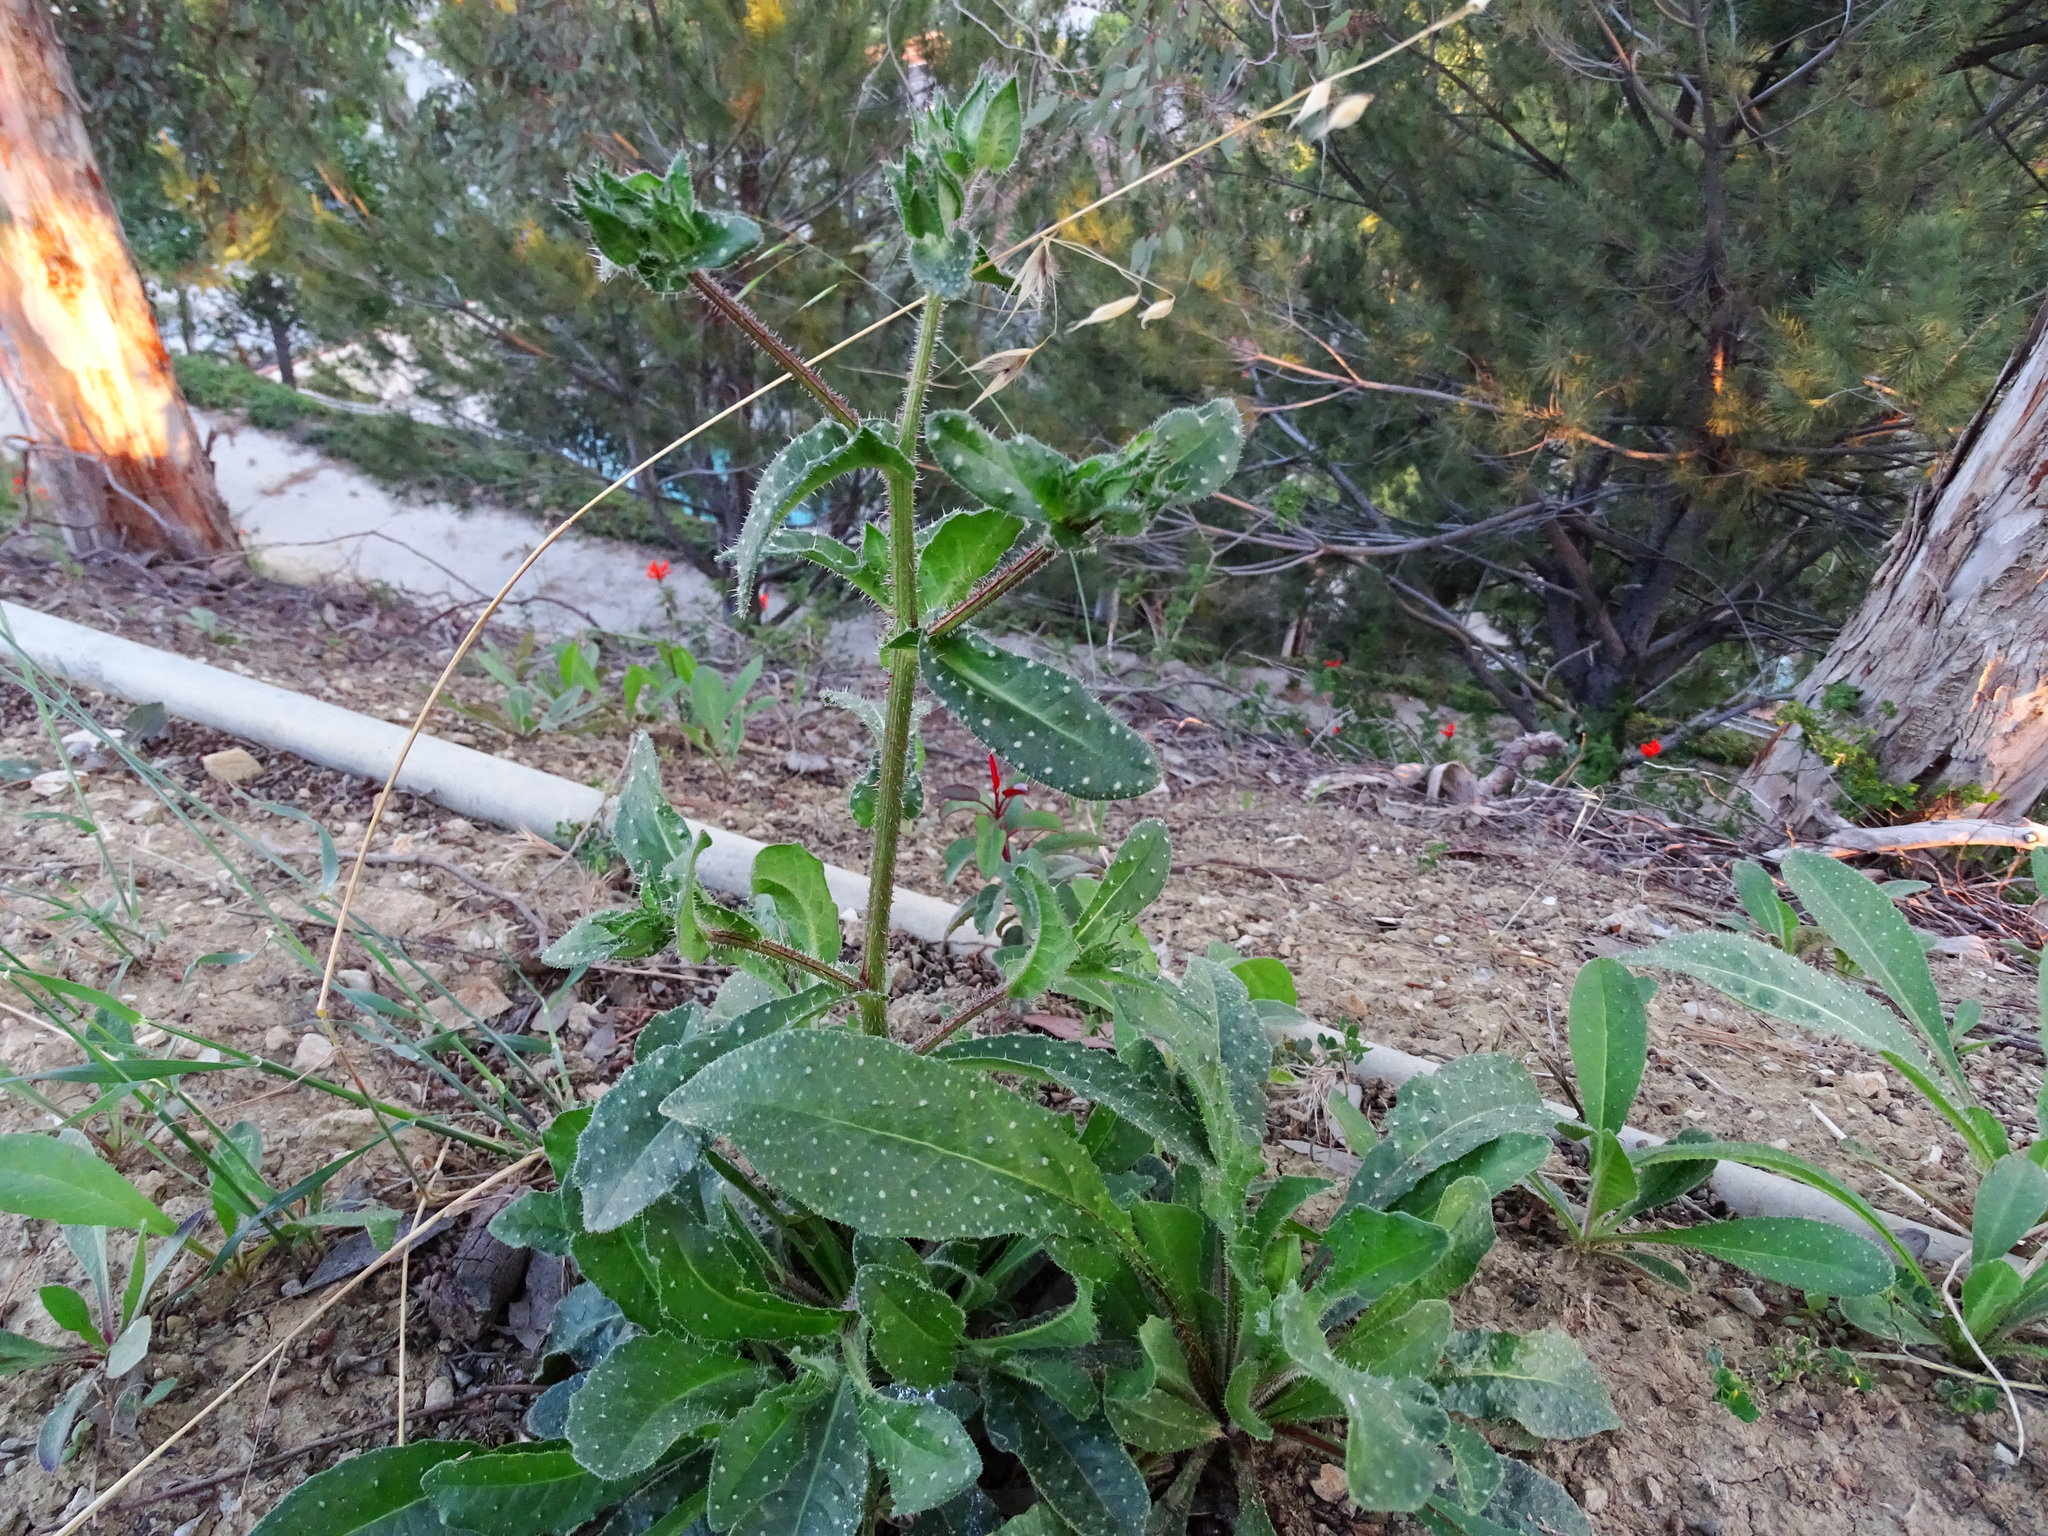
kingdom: Plantae
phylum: Tracheophyta
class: Magnoliopsida
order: Asterales
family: Asteraceae
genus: Helminthotheca
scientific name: Helminthotheca echioides
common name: Ox-tongue
